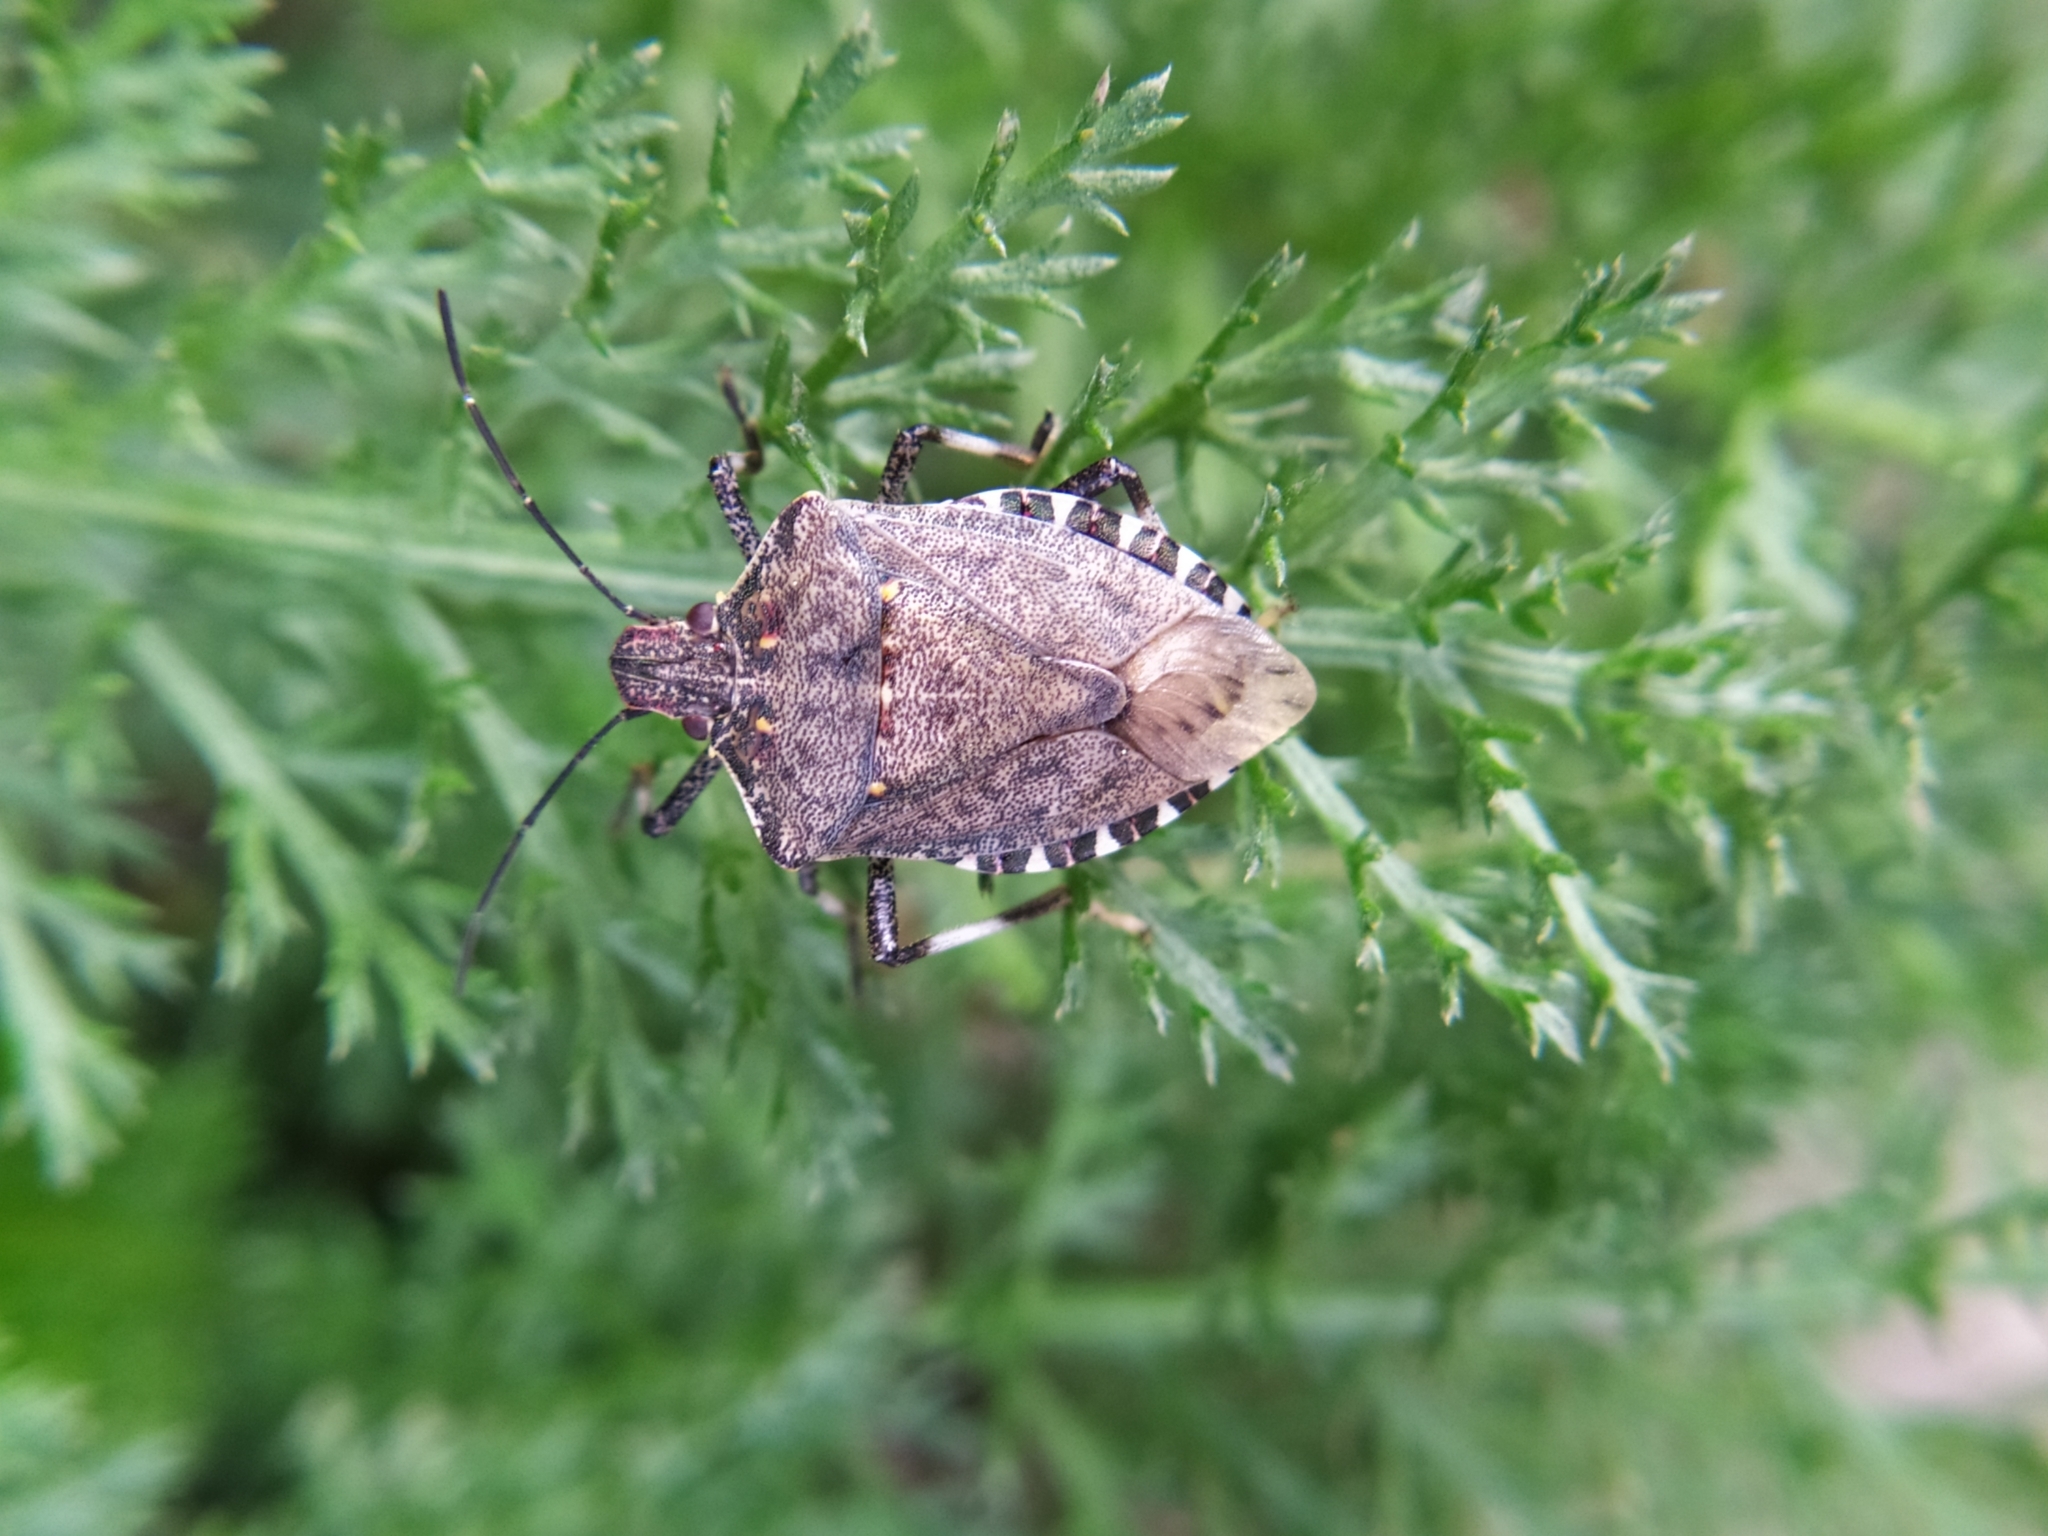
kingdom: Animalia
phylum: Arthropoda
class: Insecta
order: Hemiptera
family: Pentatomidae
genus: Halyomorpha
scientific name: Halyomorpha halys
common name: Brown marmorated stink bug
